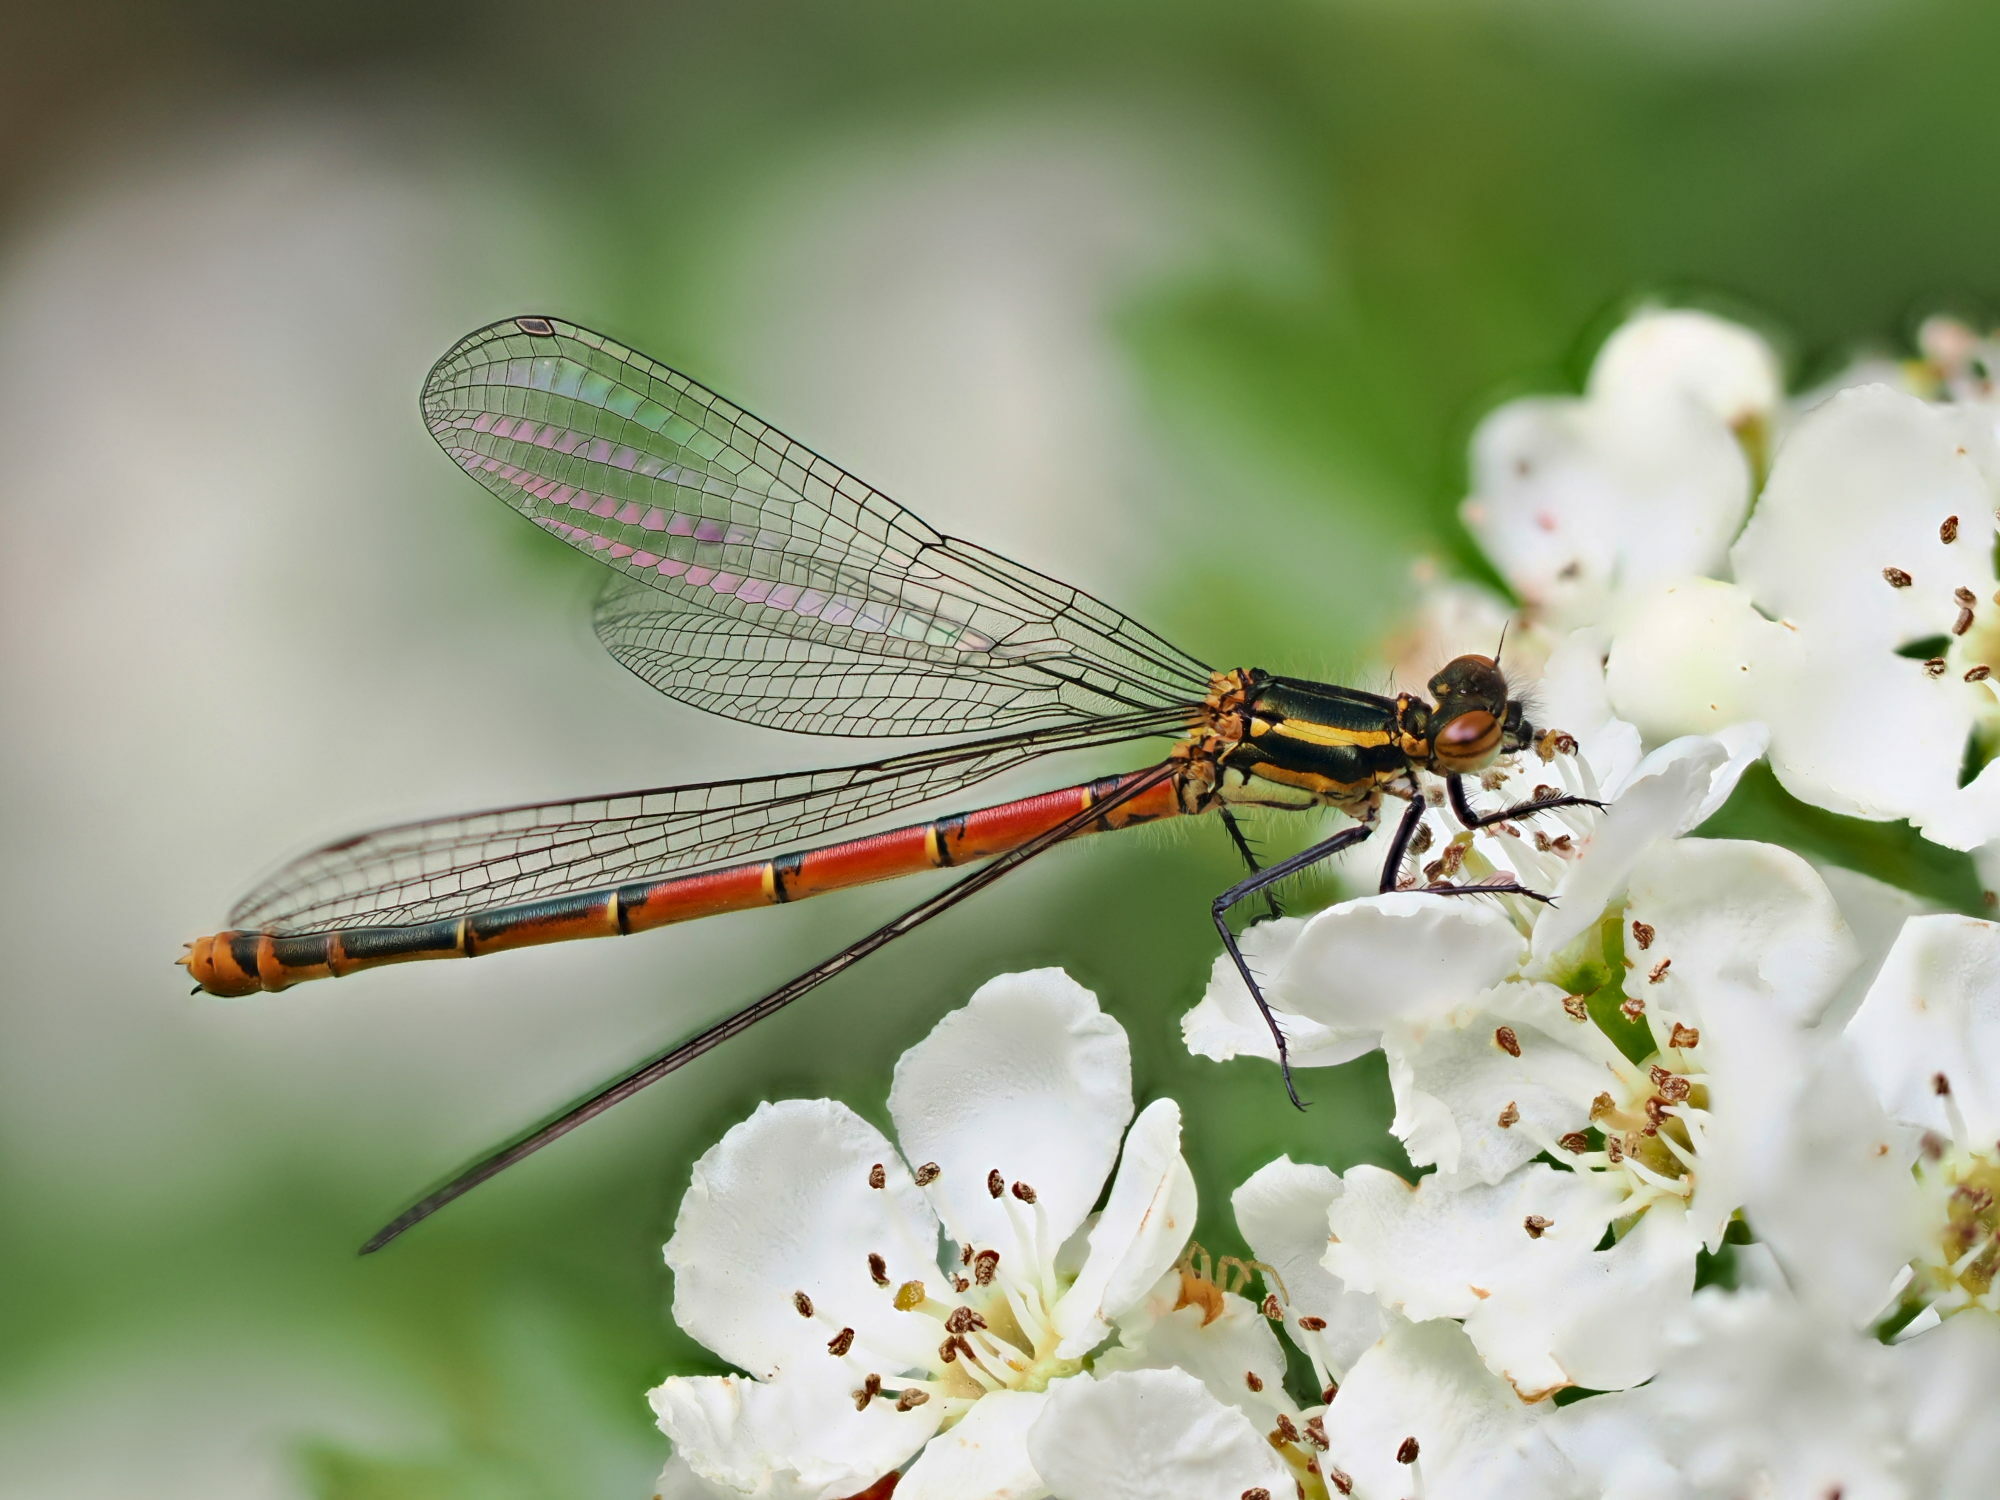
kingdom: Animalia
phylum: Arthropoda
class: Insecta
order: Odonata
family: Coenagrionidae
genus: Pyrrhosoma
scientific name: Pyrrhosoma nymphula
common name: Large red damsel
